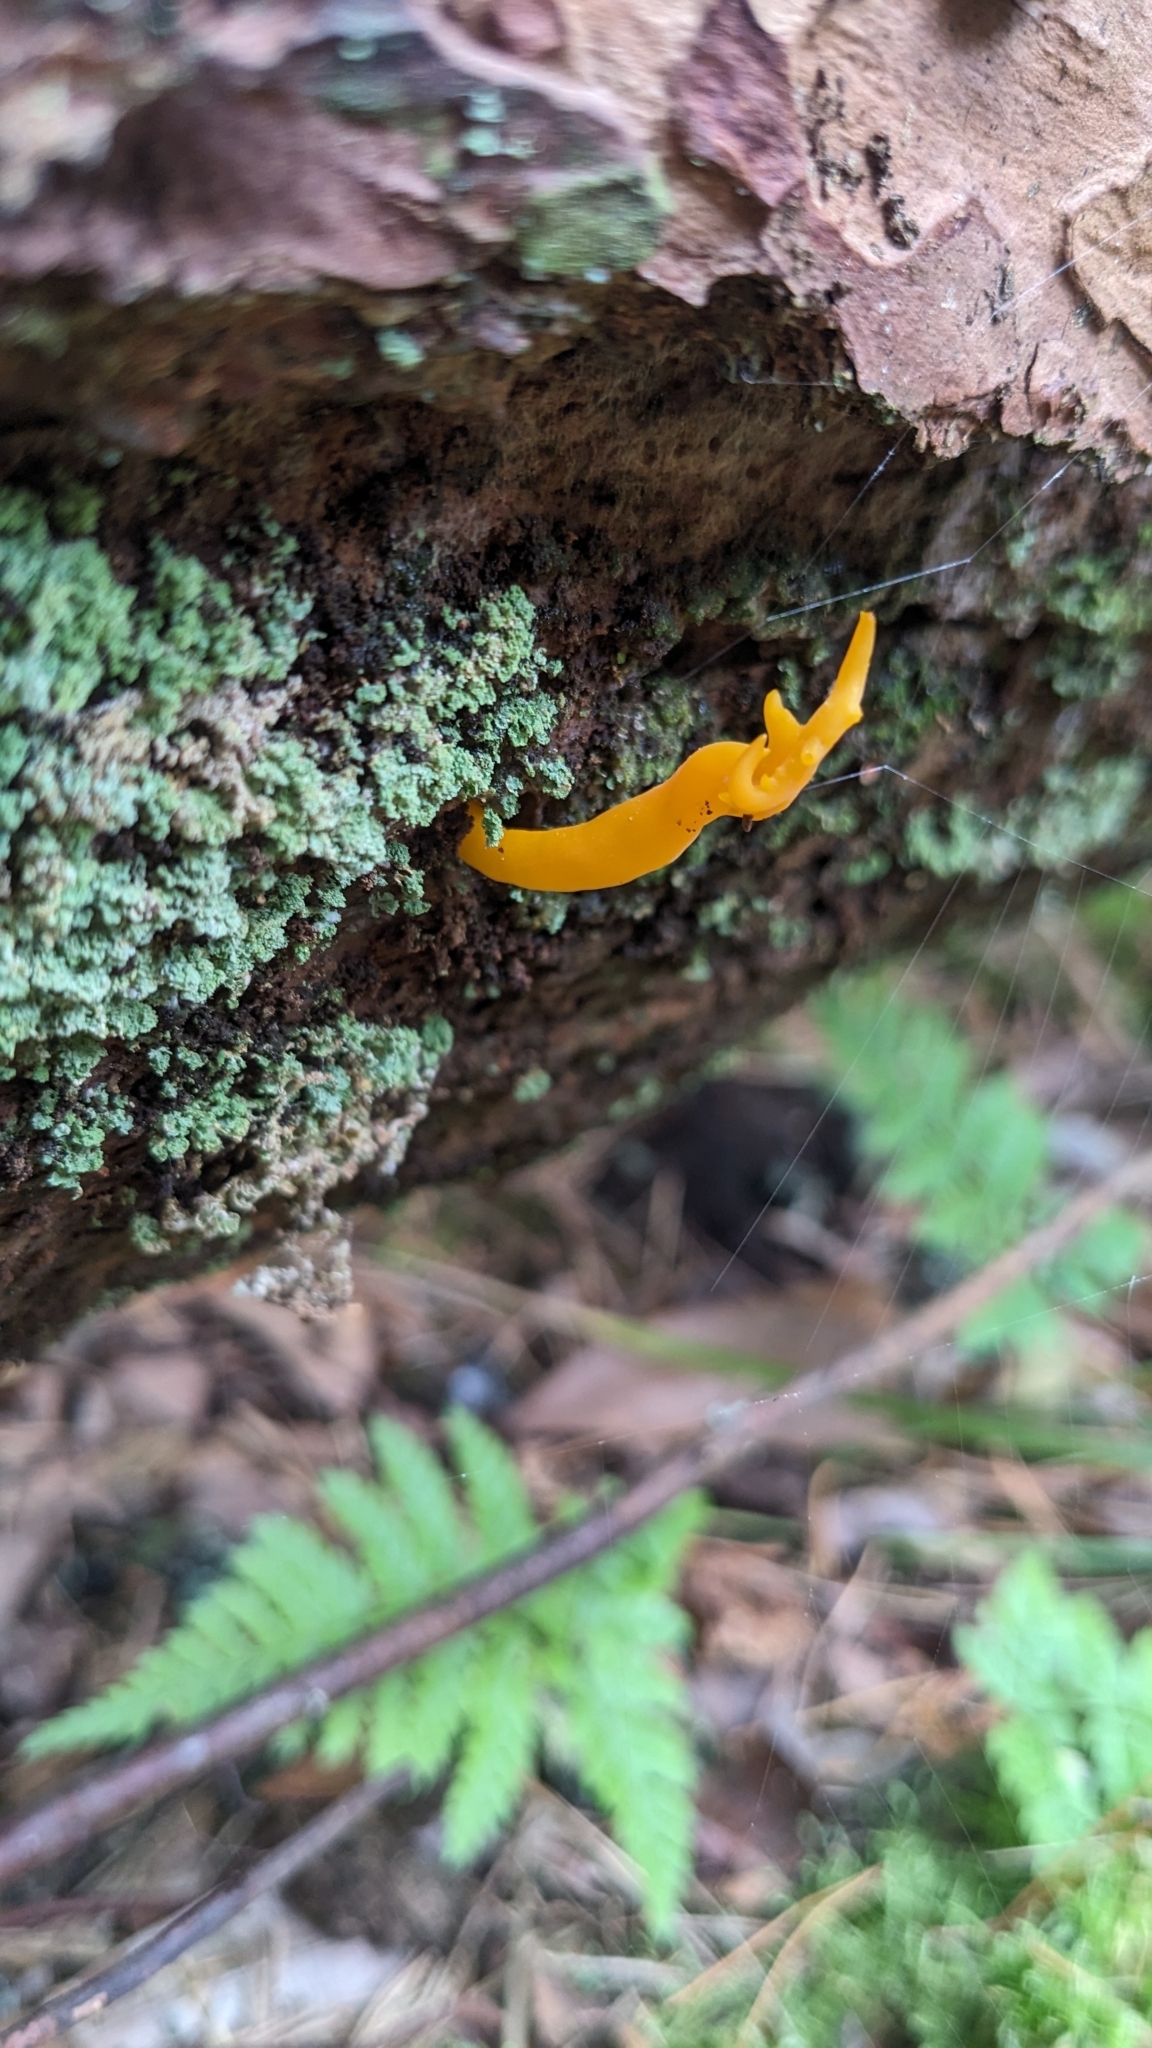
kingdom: Fungi
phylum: Basidiomycota
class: Dacrymycetes
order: Dacrymycetales
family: Dacrymycetaceae
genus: Calocera
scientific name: Calocera viscosa
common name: Yellow stagshorn
